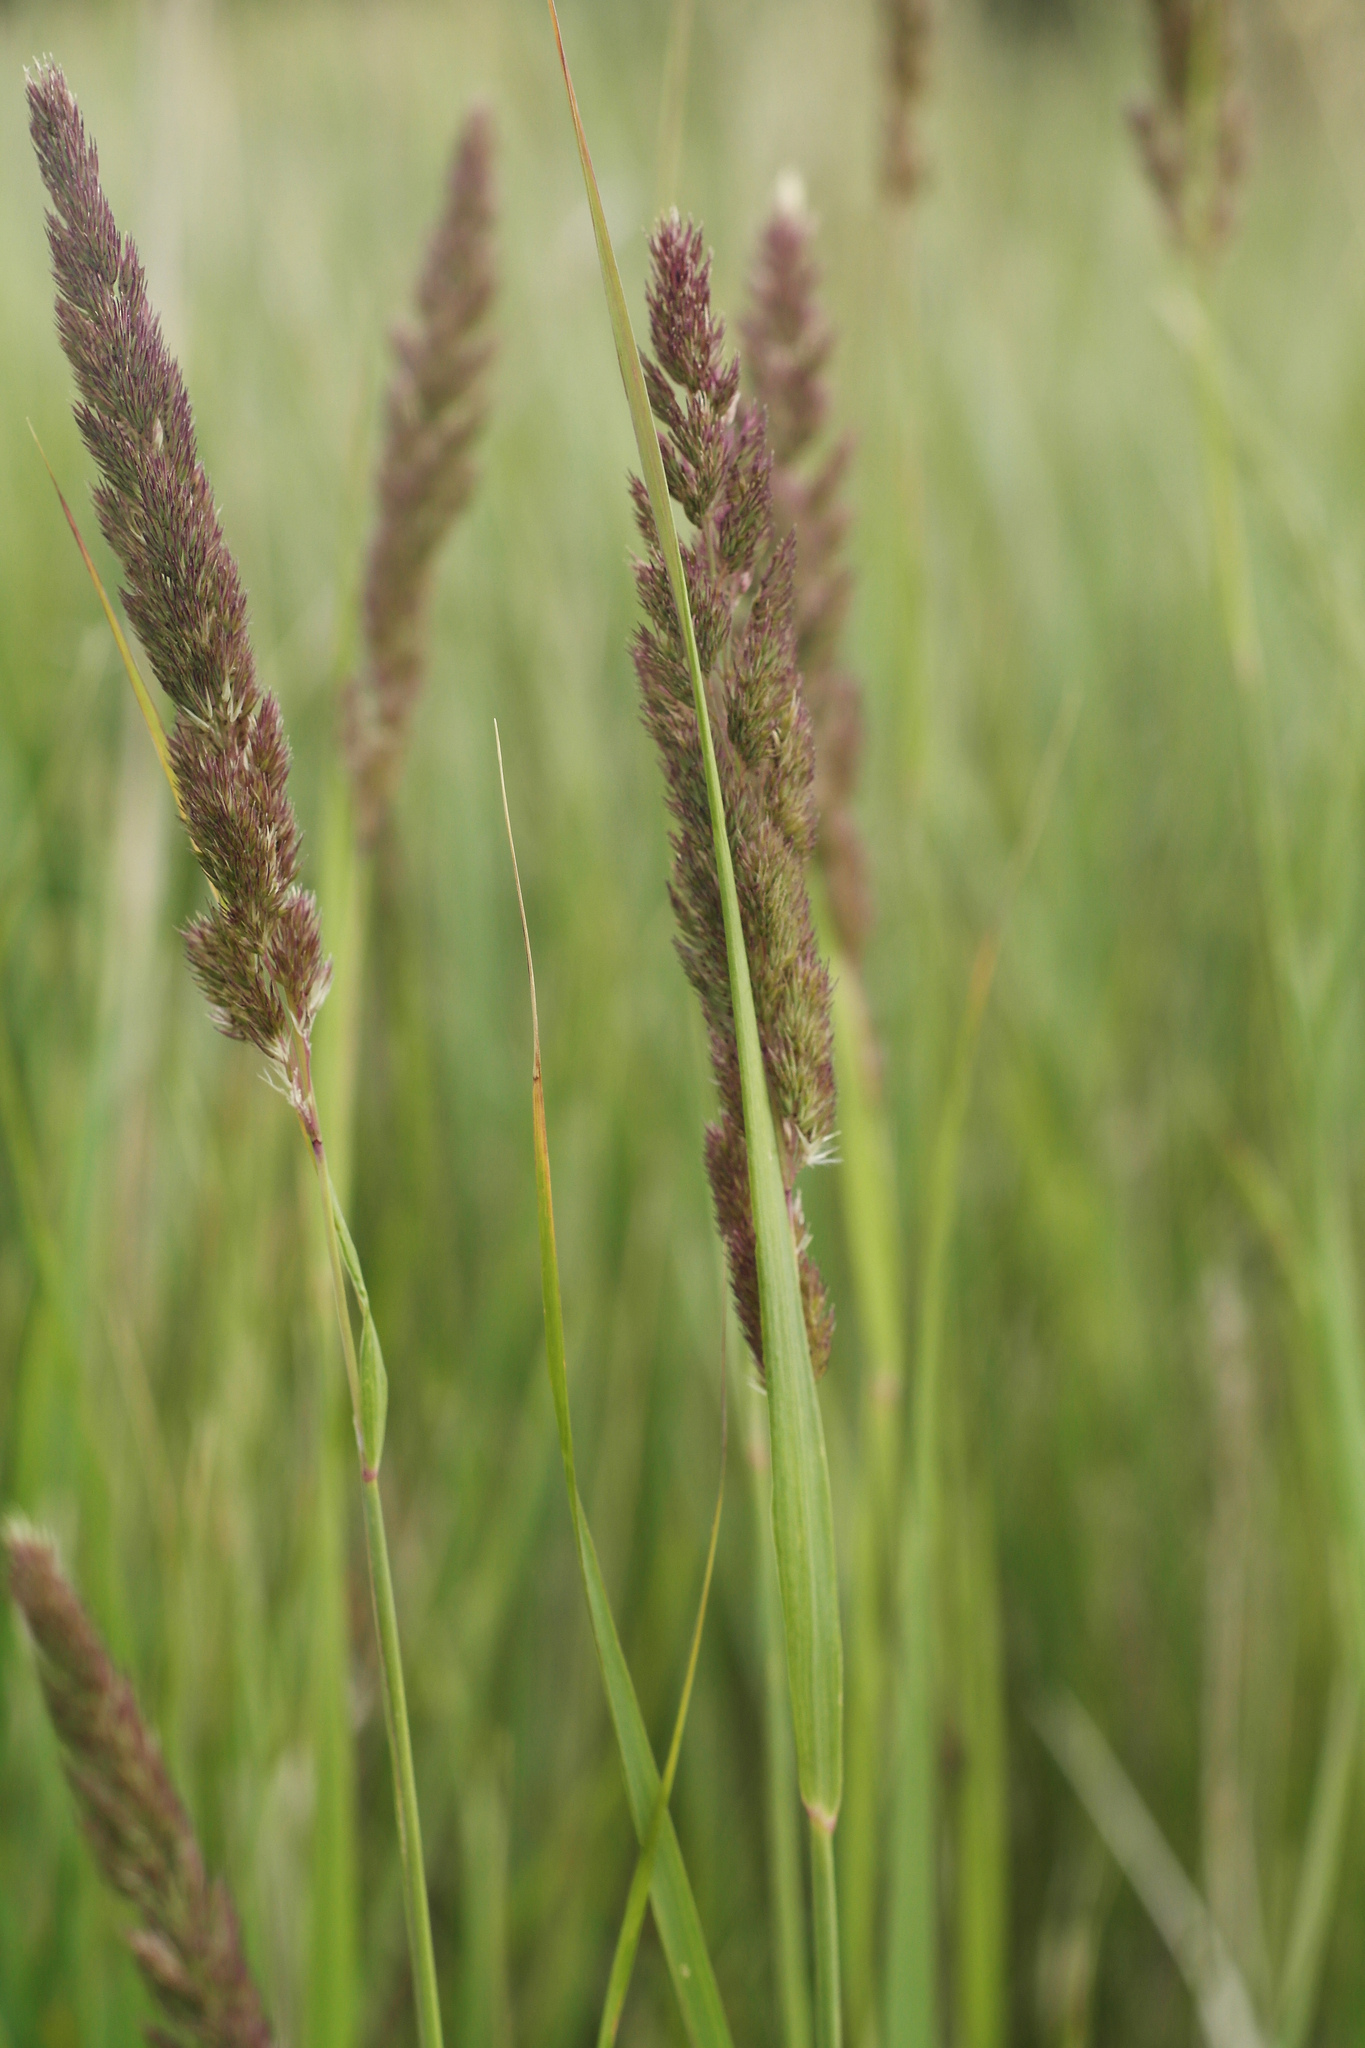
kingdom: Plantae
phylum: Tracheophyta
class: Liliopsida
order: Poales
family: Poaceae
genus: Calamagrostis
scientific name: Calamagrostis epigejos
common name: Wood small-reed
